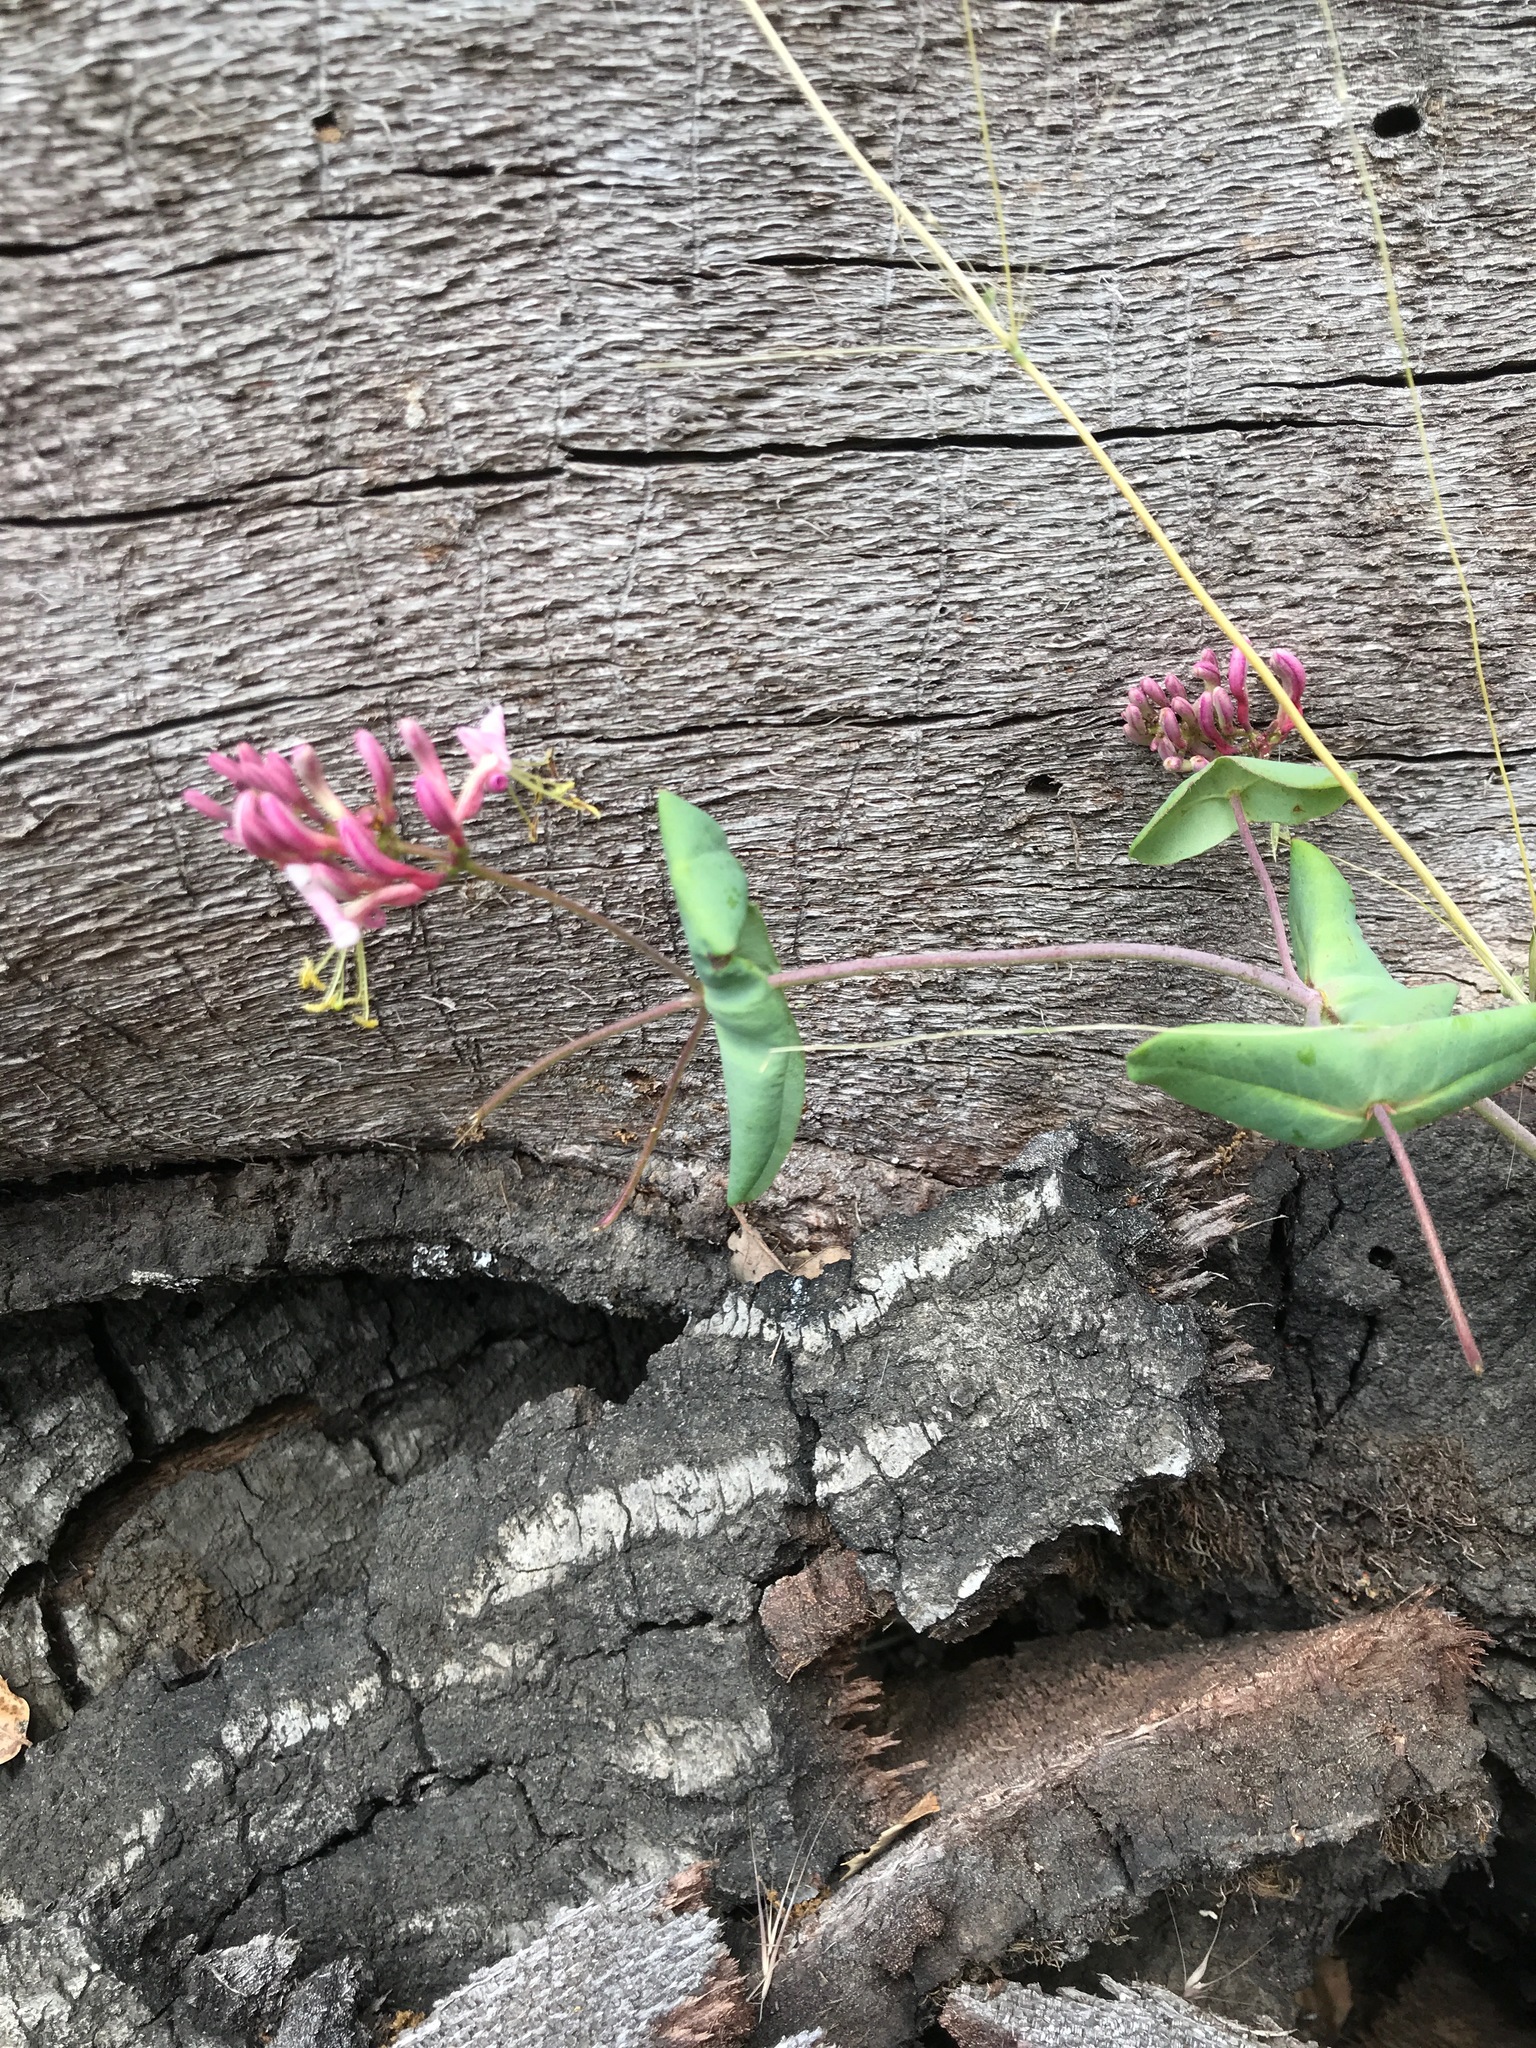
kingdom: Plantae
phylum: Tracheophyta
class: Magnoliopsida
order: Dipsacales
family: Caprifoliaceae
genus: Lonicera
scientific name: Lonicera hispidula
